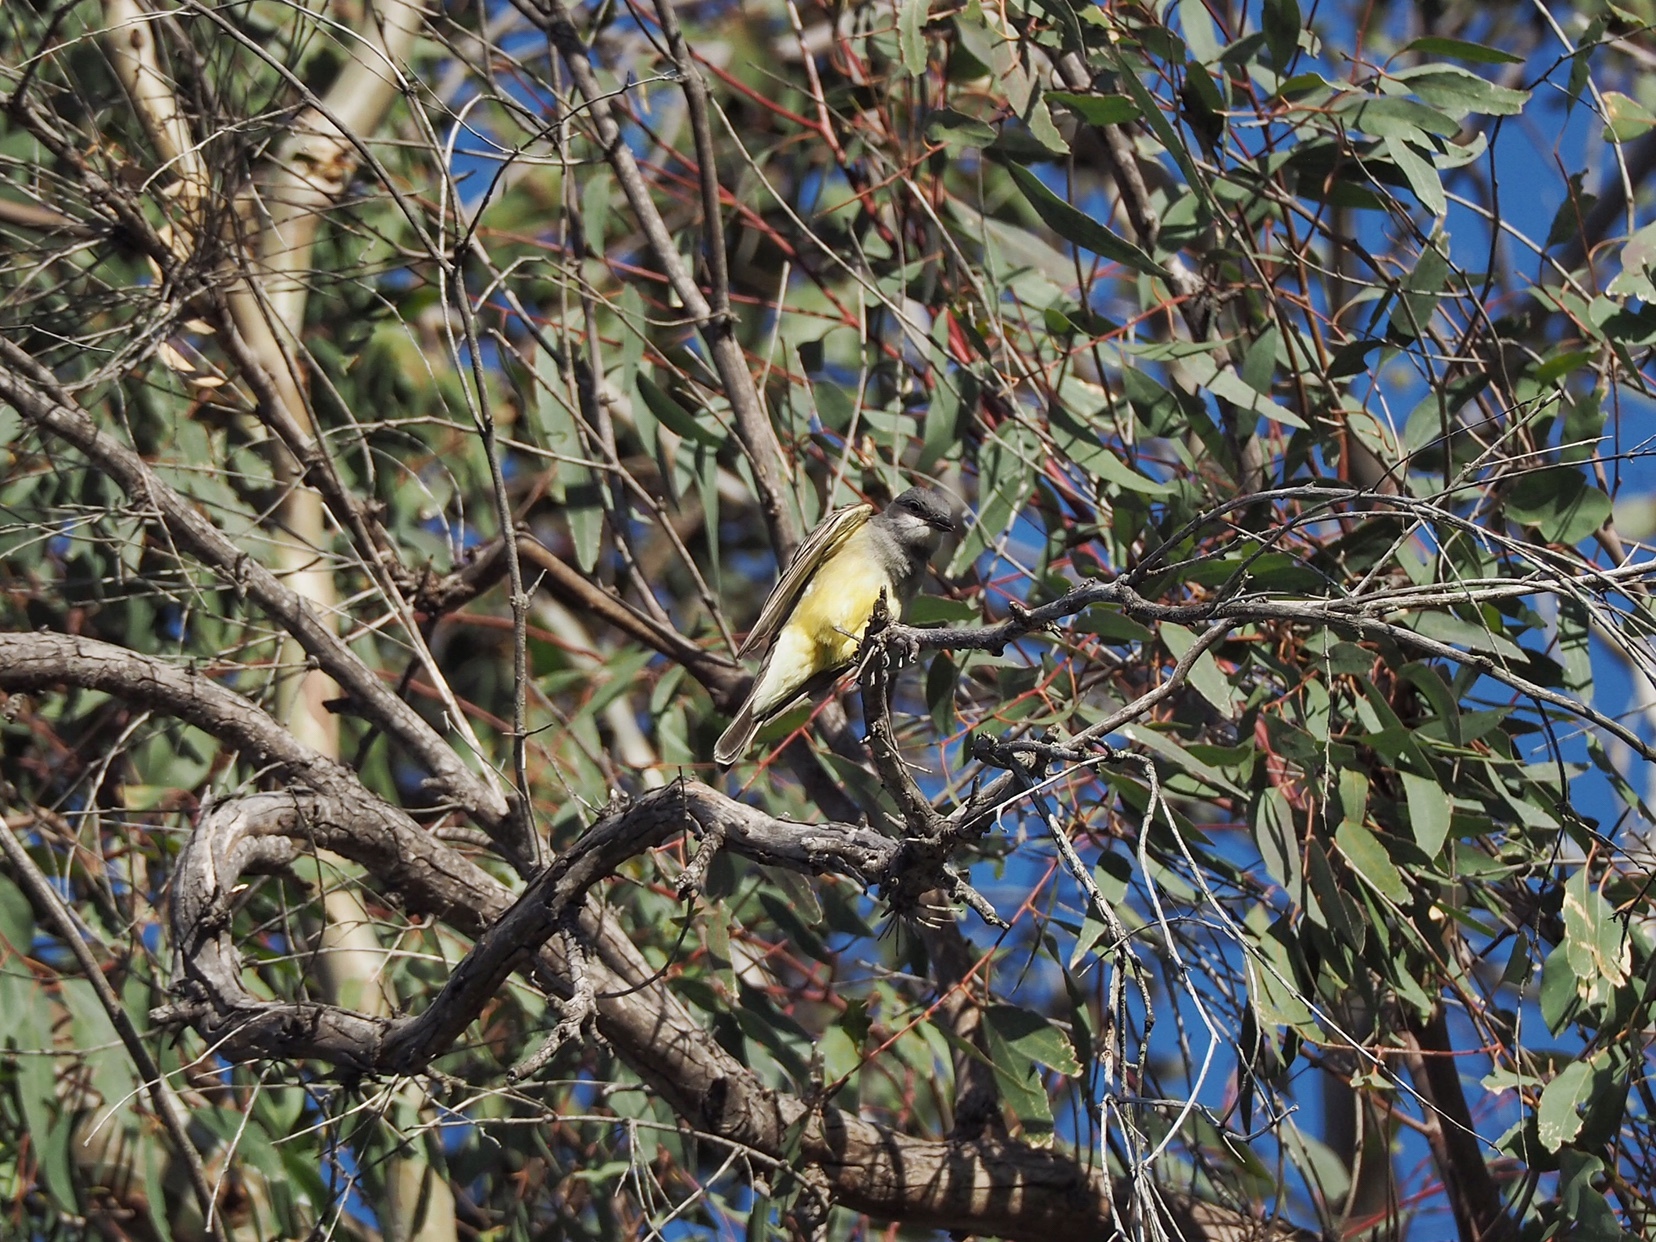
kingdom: Animalia
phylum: Chordata
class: Aves
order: Passeriformes
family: Tyrannidae
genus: Tyrannus
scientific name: Tyrannus vociferans
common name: Cassin's kingbird
